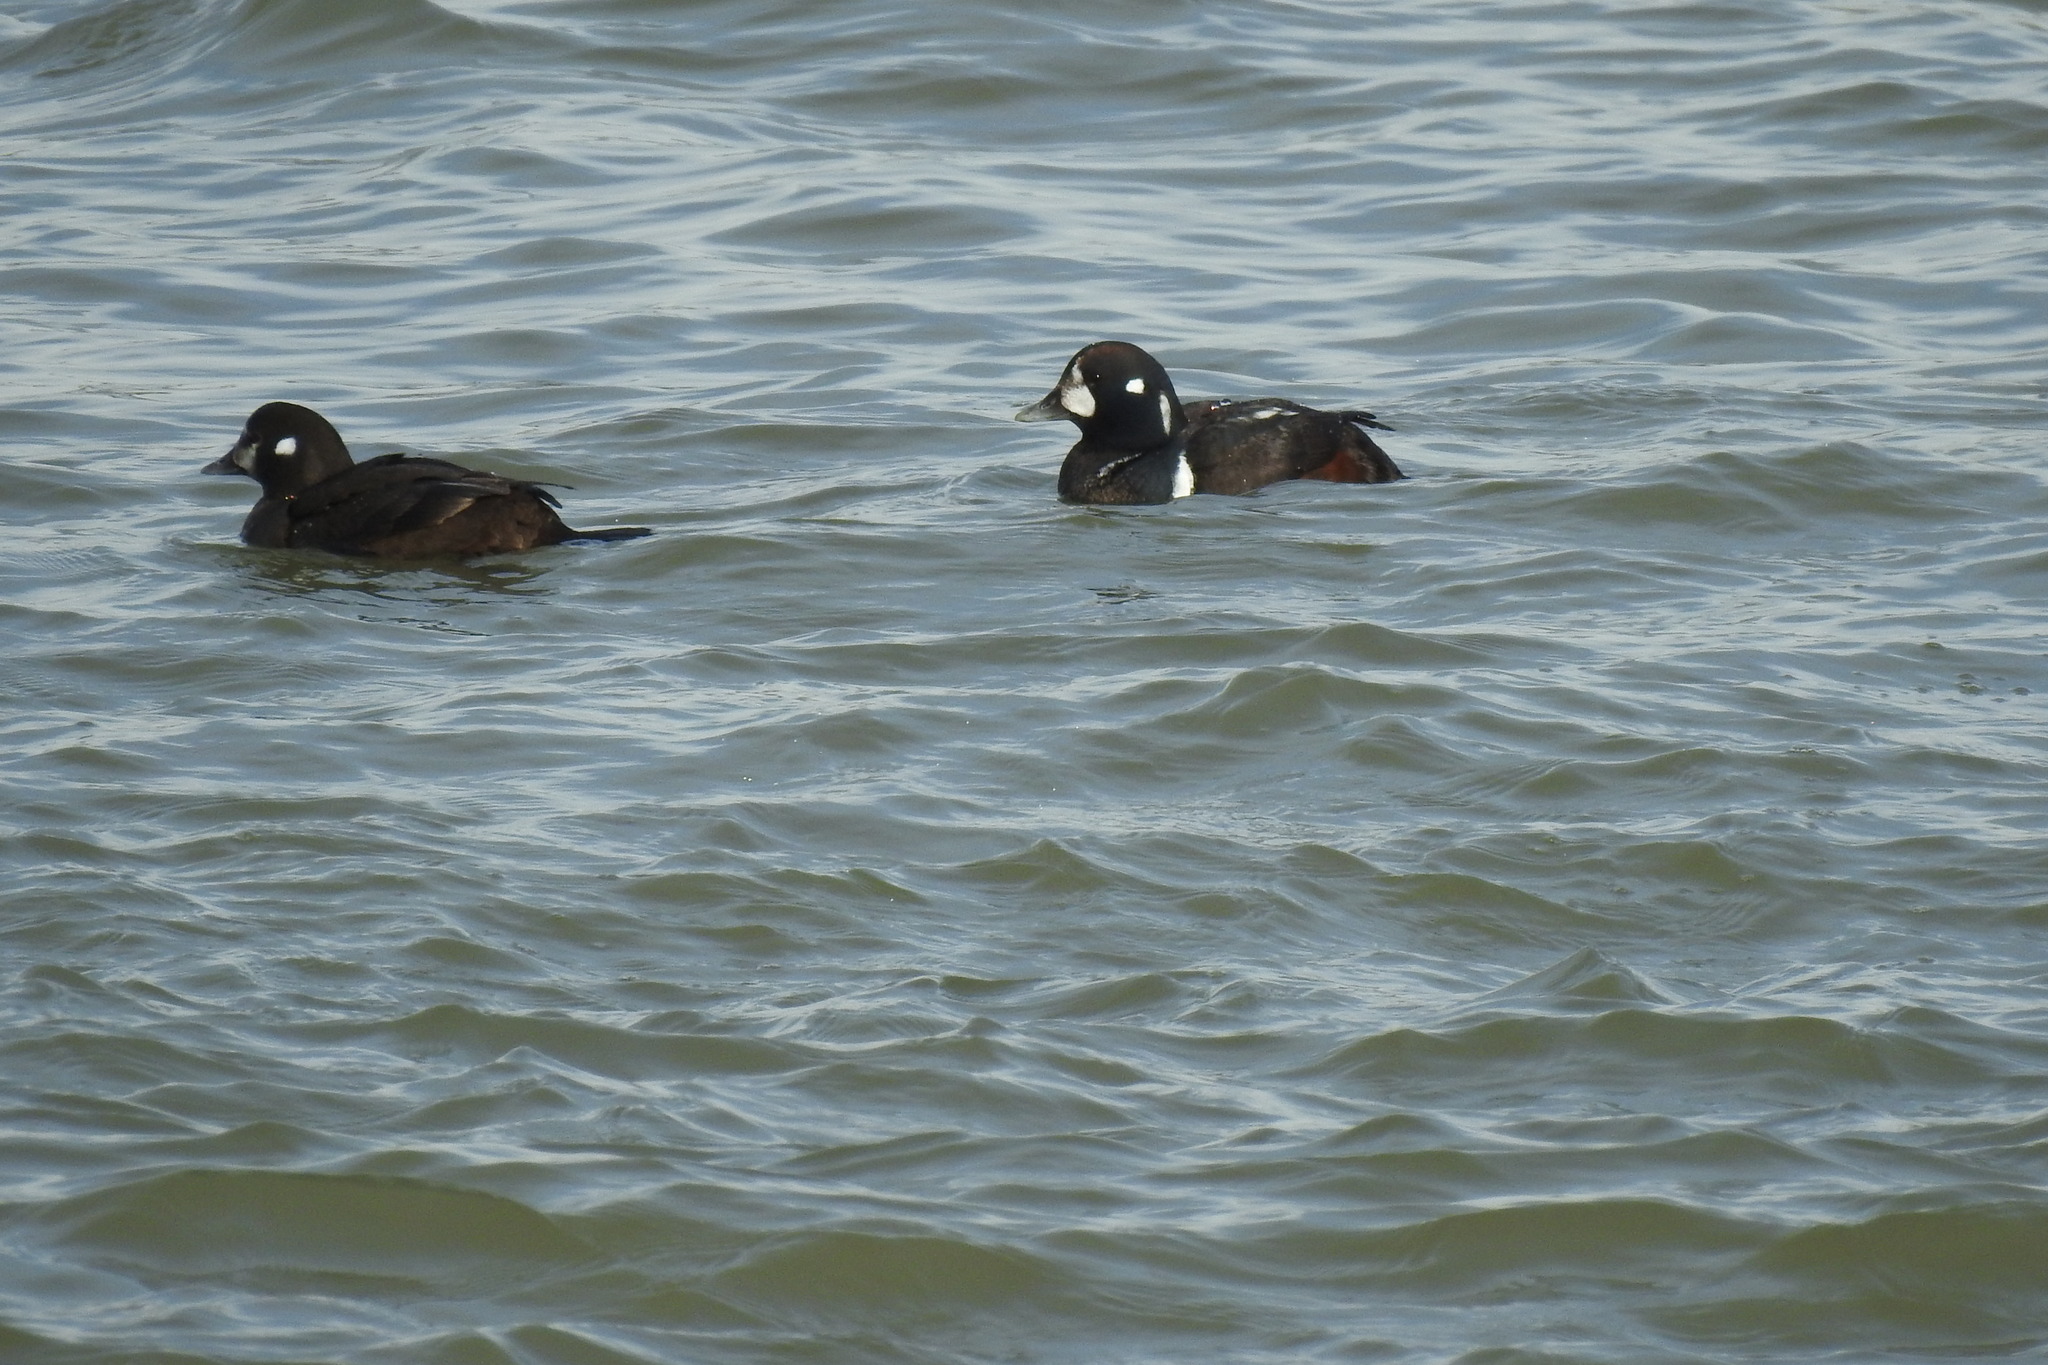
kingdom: Animalia
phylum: Chordata
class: Aves
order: Anseriformes
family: Anatidae
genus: Histrionicus
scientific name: Histrionicus histrionicus
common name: Harlequin duck
